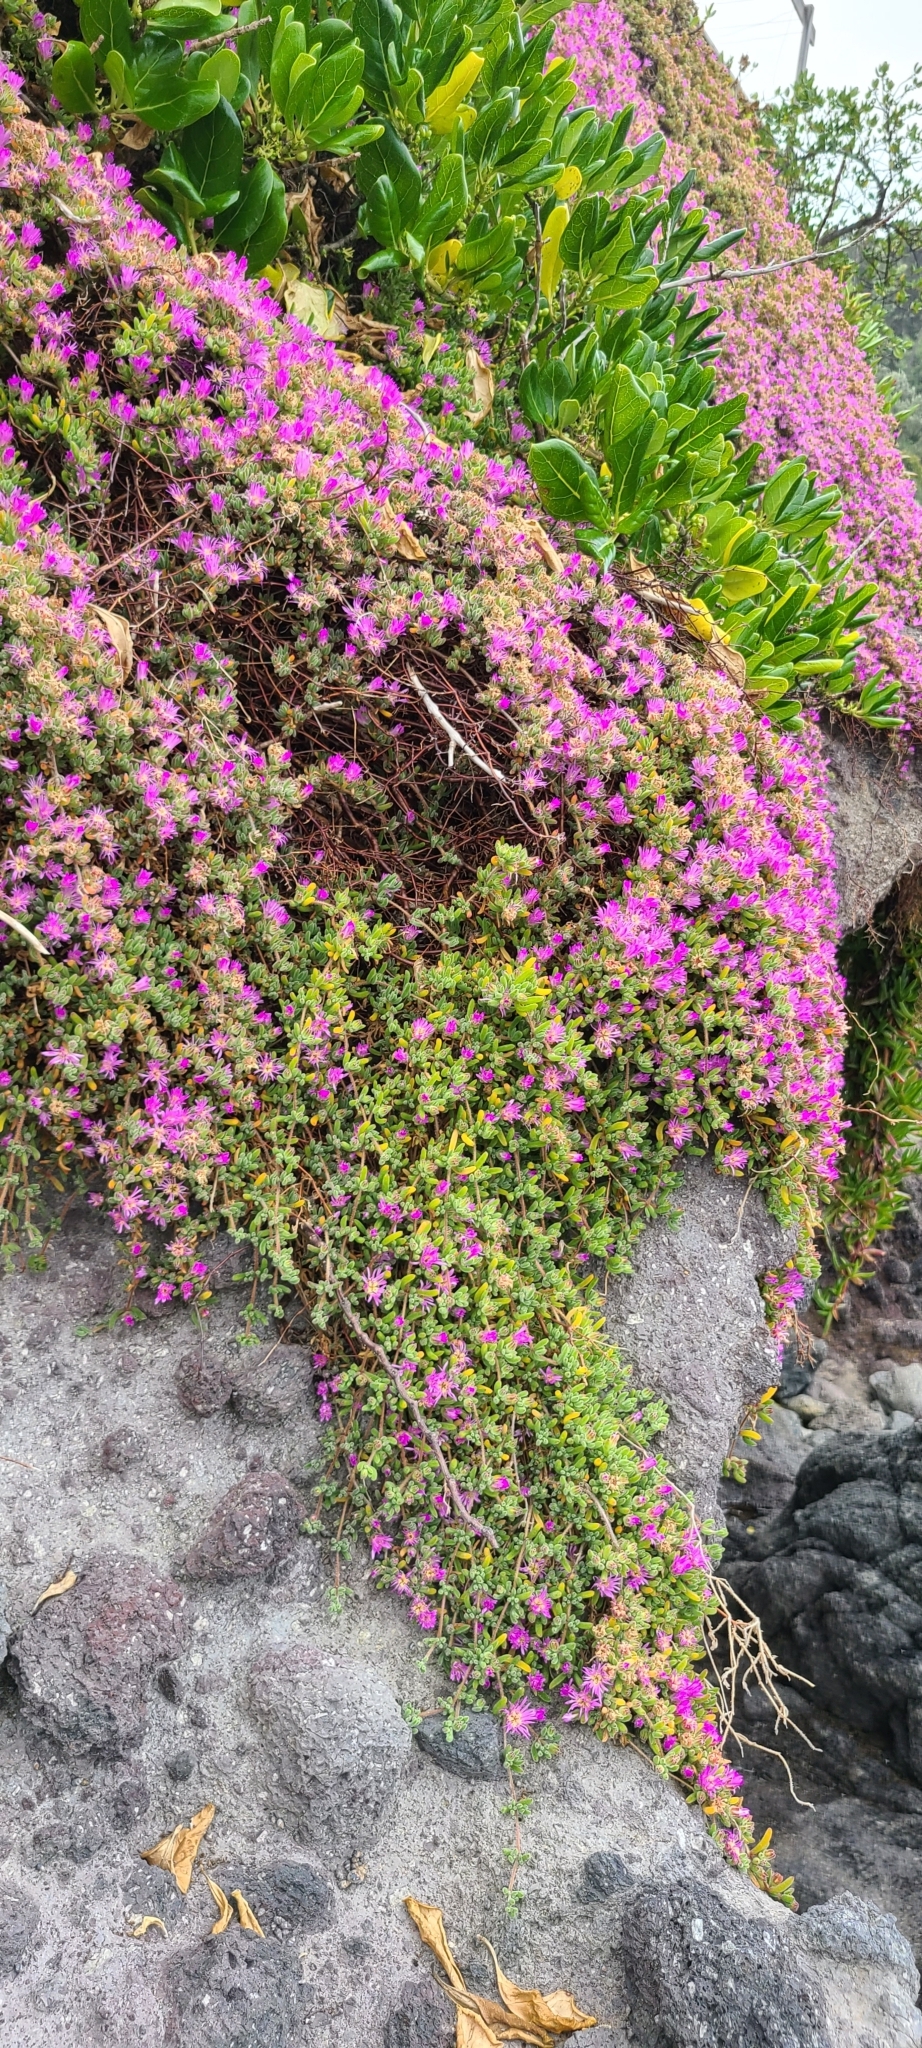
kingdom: Plantae
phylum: Tracheophyta
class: Magnoliopsida
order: Caryophyllales
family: Aizoaceae
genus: Drosanthemum
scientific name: Drosanthemum floribundum
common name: Pale dewplant
